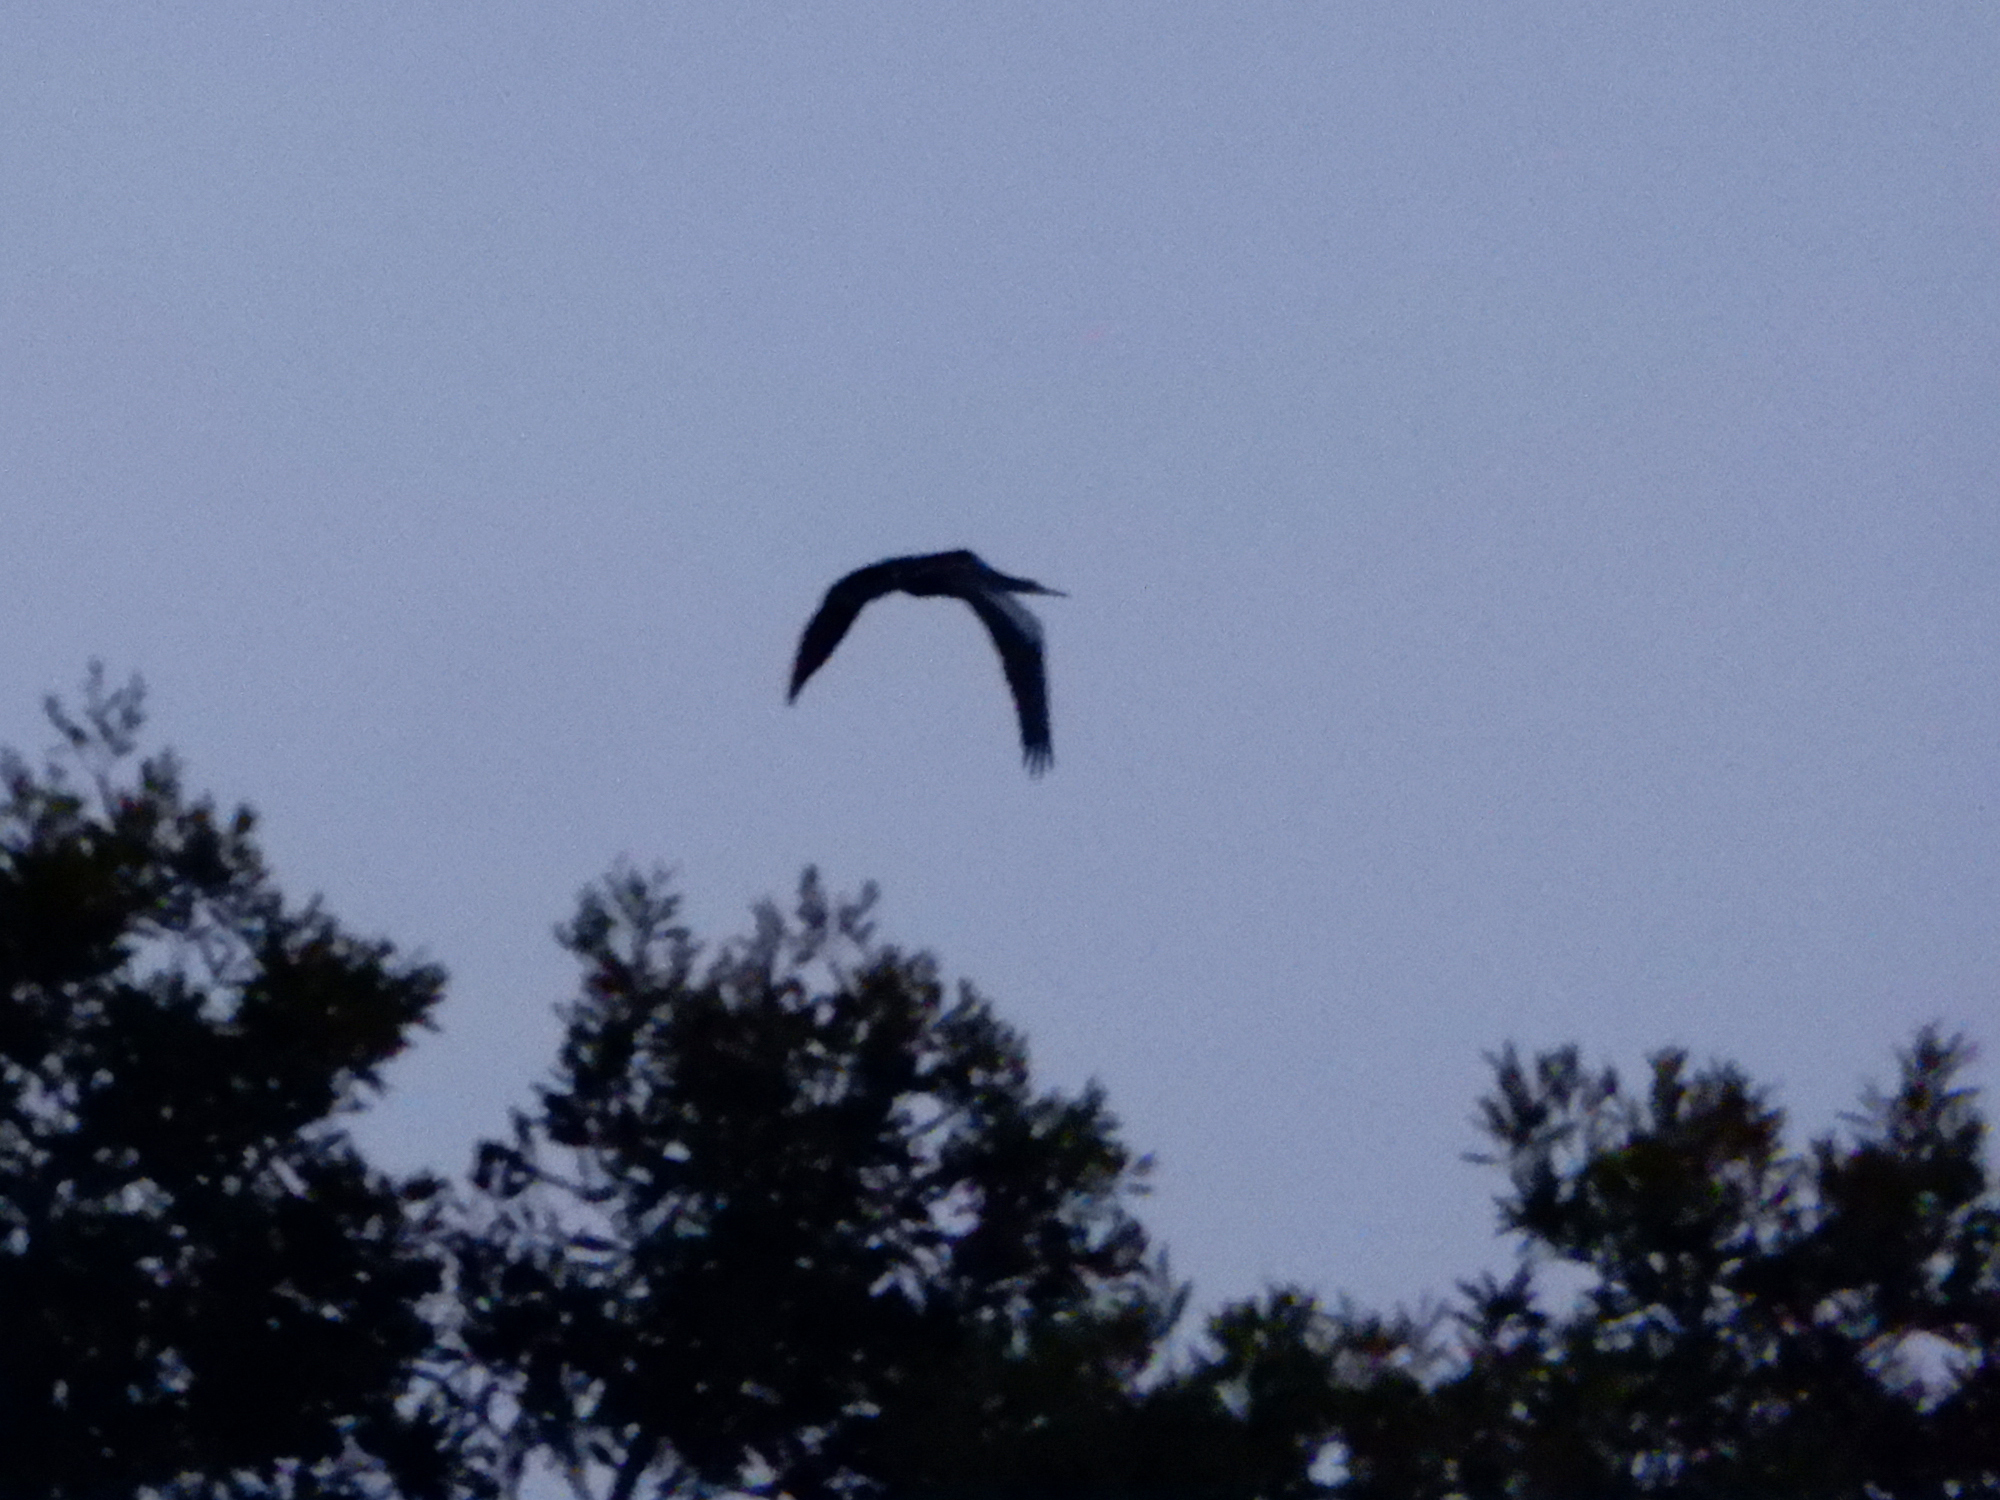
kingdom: Animalia
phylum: Chordata
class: Aves
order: Suliformes
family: Anhingidae
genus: Anhinga
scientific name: Anhinga anhinga
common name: Anhinga
